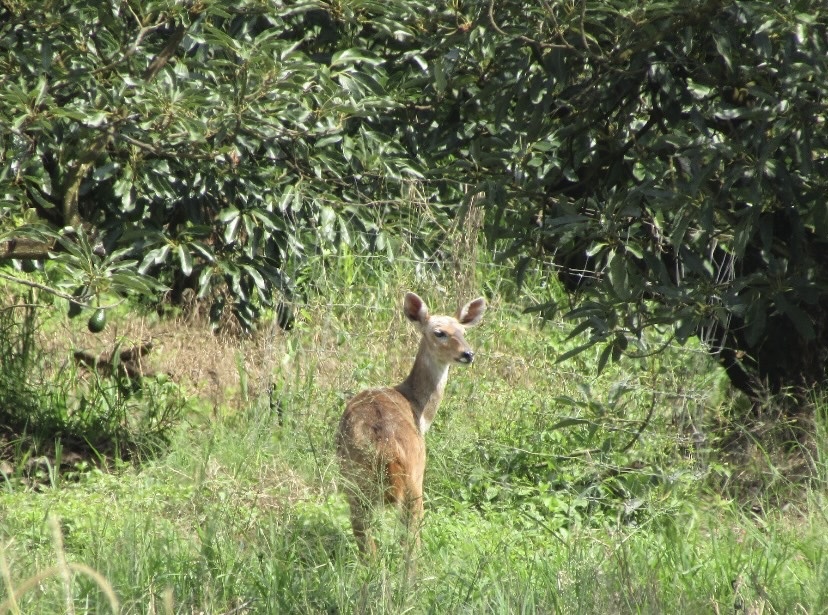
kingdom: Animalia
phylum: Chordata
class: Mammalia
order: Artiodactyla
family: Bovidae
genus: Tragelaphus
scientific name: Tragelaphus scriptus
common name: Bushbuck
